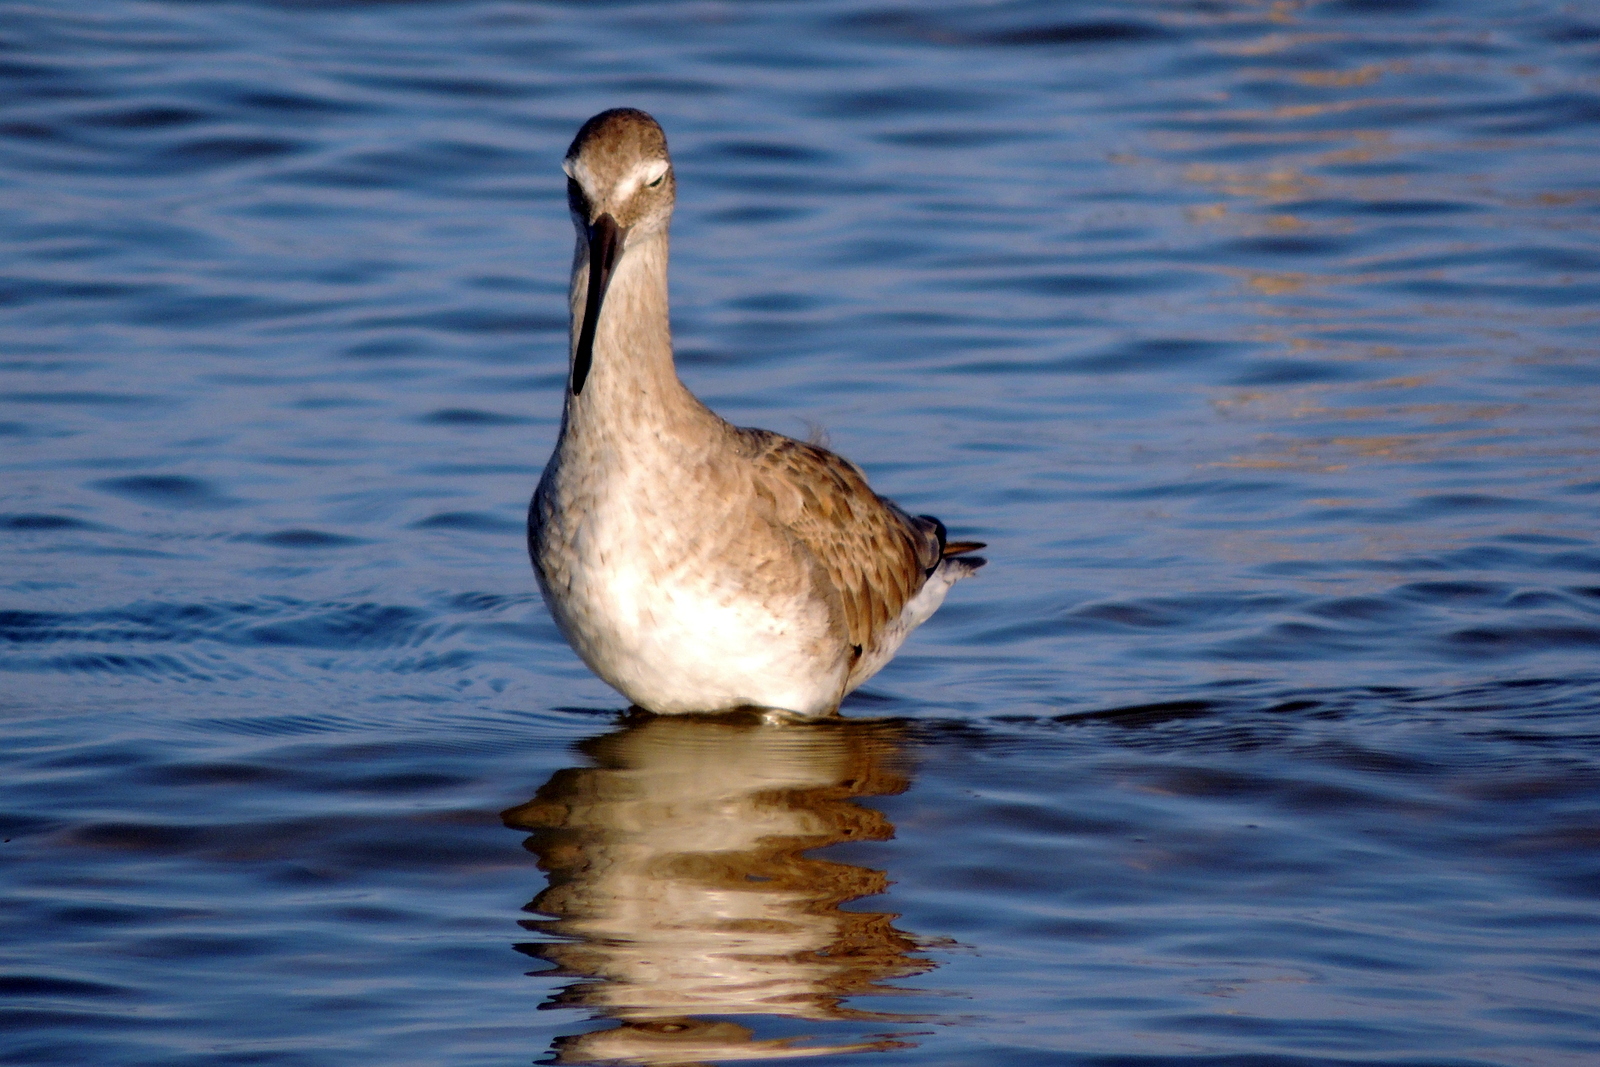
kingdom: Animalia
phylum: Chordata
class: Aves
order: Charadriiformes
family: Scolopacidae
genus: Tringa
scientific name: Tringa semipalmata
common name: Willet
